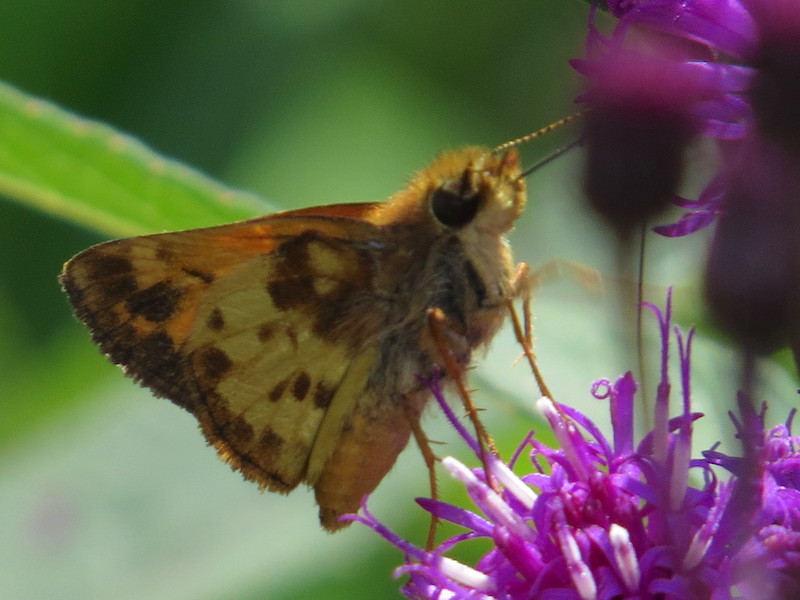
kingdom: Animalia
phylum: Arthropoda
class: Insecta
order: Lepidoptera
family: Hesperiidae
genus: Lon
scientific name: Lon zabulon
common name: Zabulon skipper
